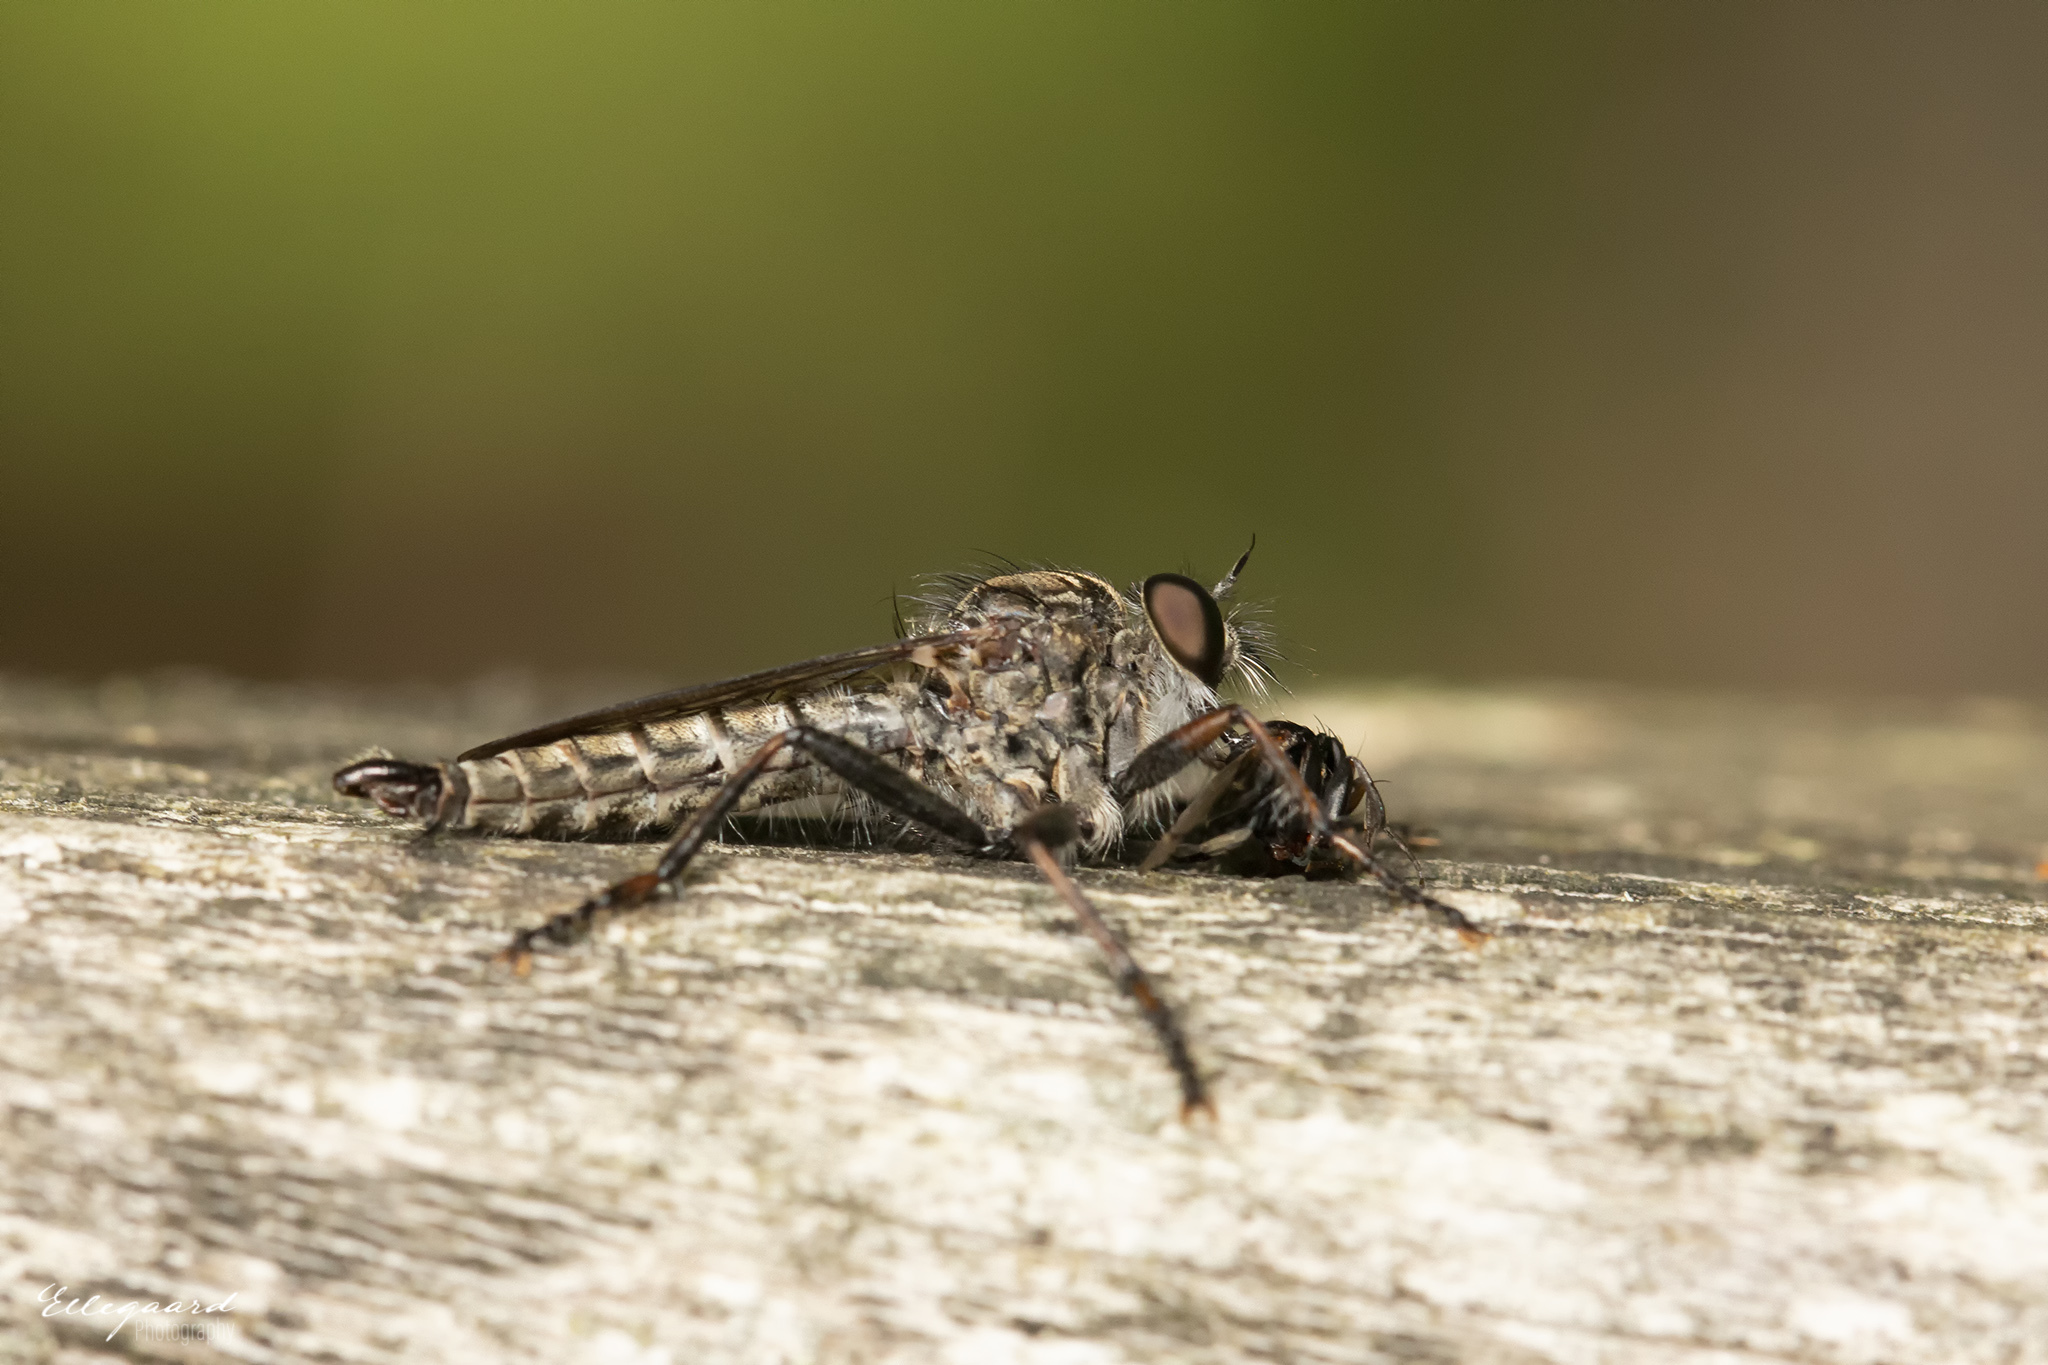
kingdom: Animalia
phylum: Arthropoda
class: Insecta
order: Diptera
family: Asilidae
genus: Machimus
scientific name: Machimus atricapillus
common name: Kite-tailed robberfly
